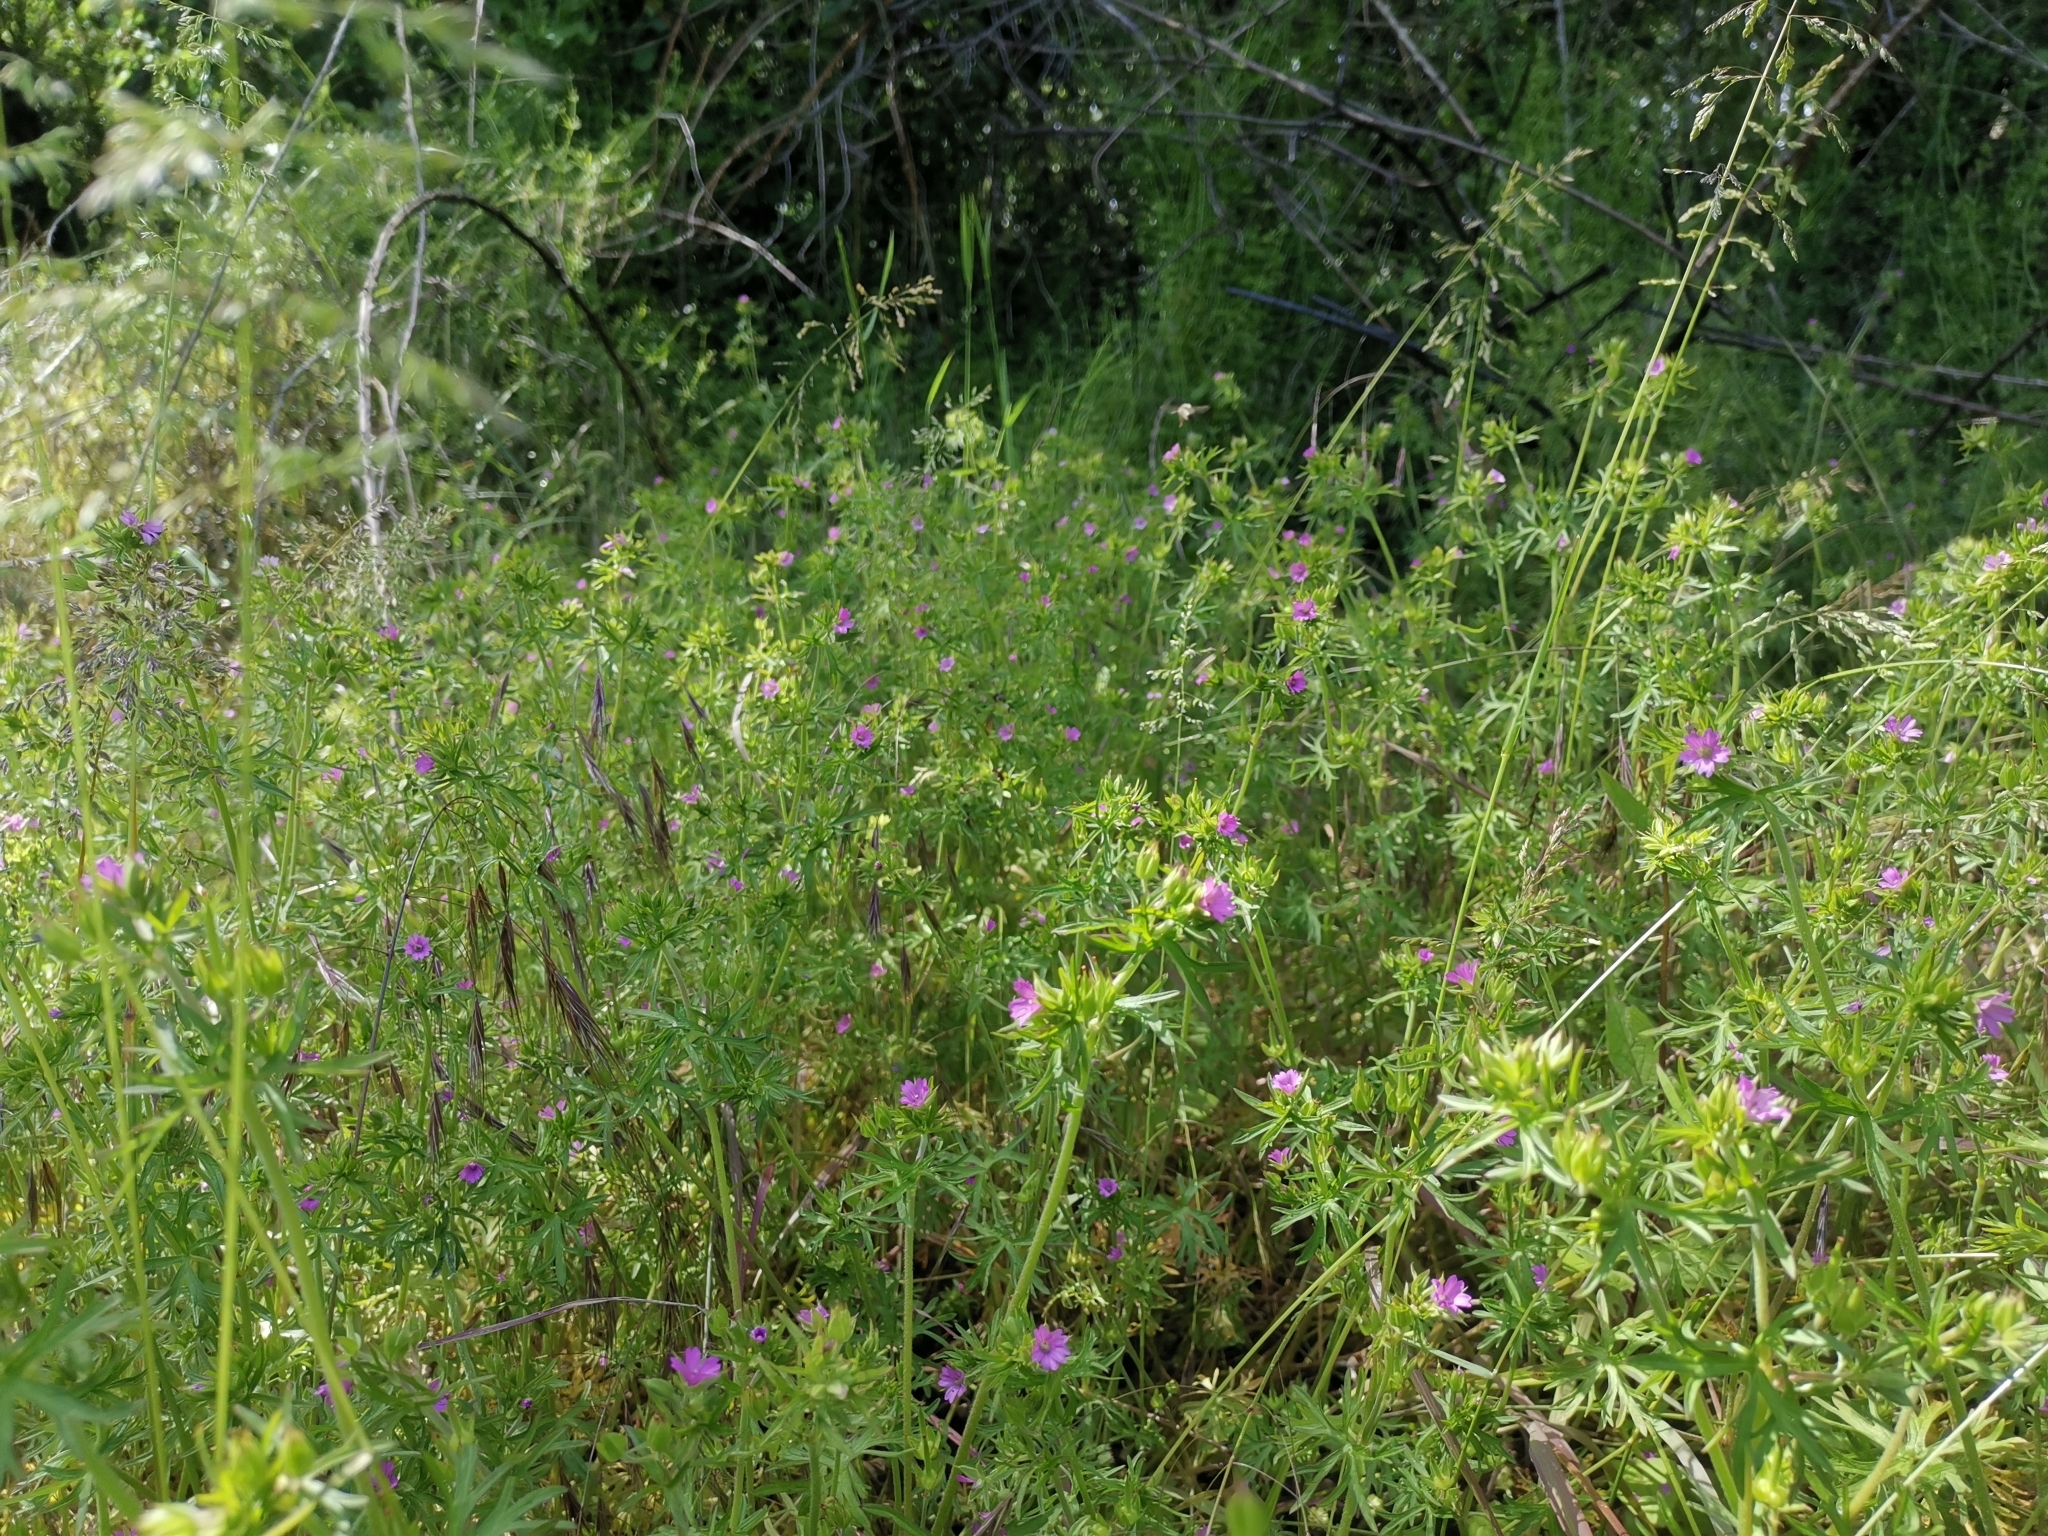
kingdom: Plantae
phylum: Tracheophyta
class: Magnoliopsida
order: Geraniales
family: Geraniaceae
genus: Geranium
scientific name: Geranium dissectum
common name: Cut-leaved crane's-bill
